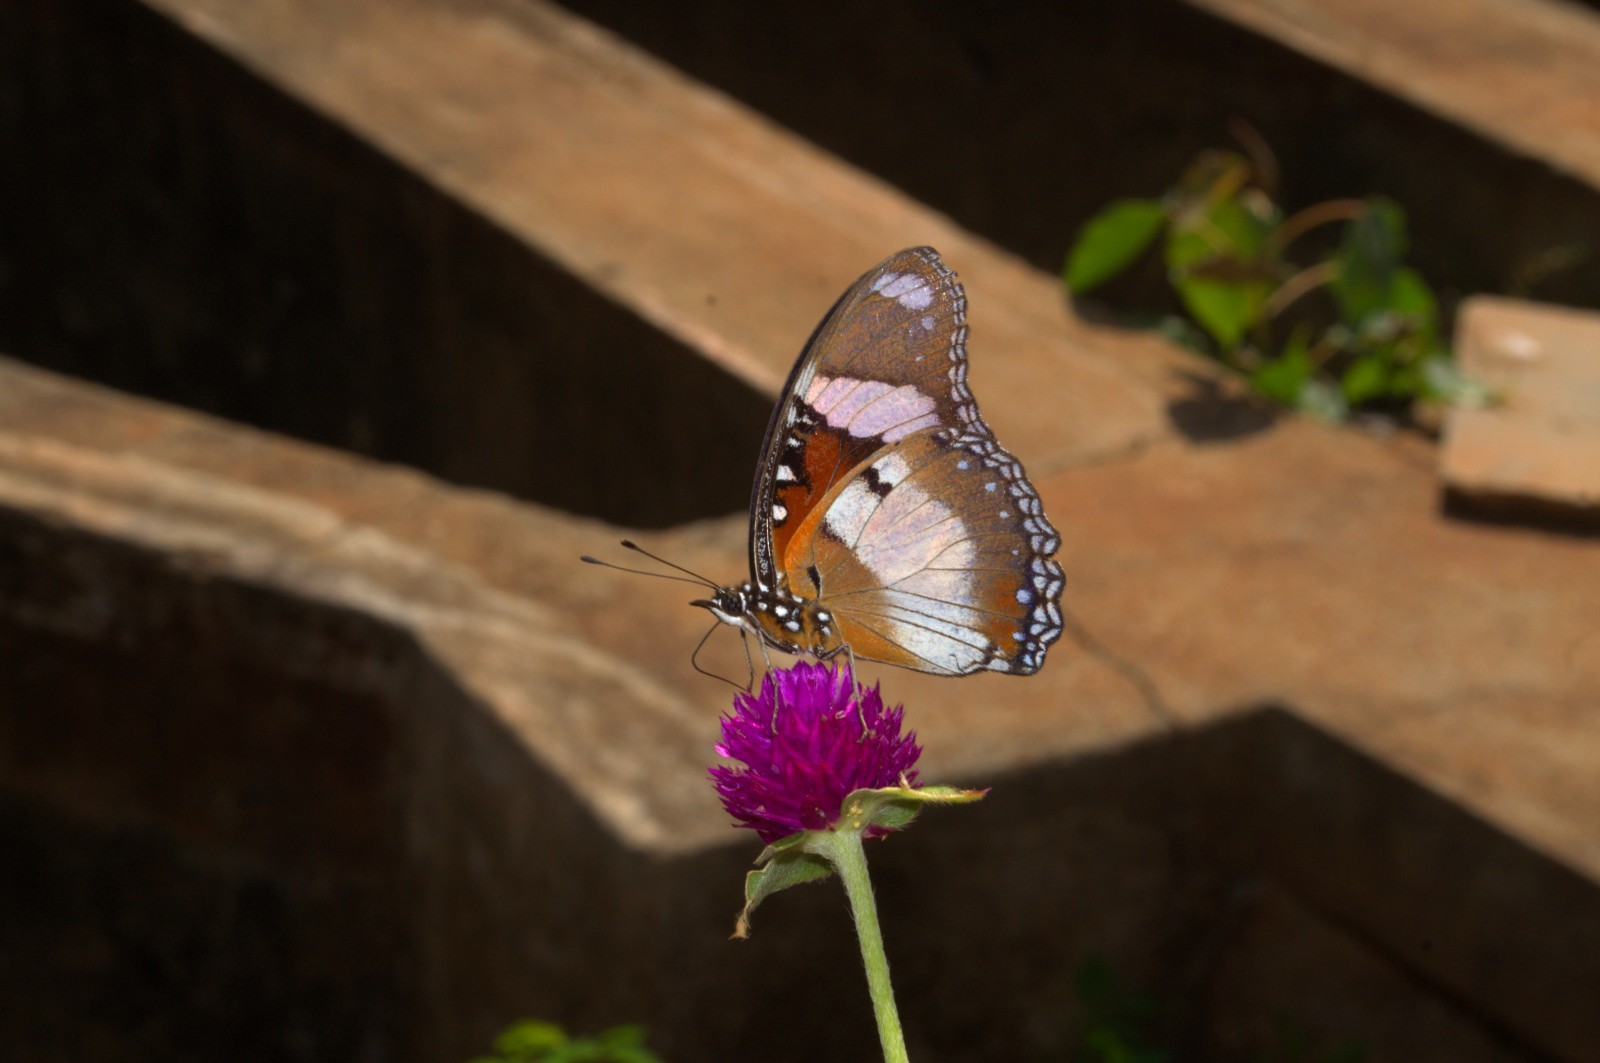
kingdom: Animalia
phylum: Arthropoda
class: Insecta
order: Lepidoptera
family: Nymphalidae
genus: Hypolimnas
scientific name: Hypolimnas misippus
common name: False plain tiger
